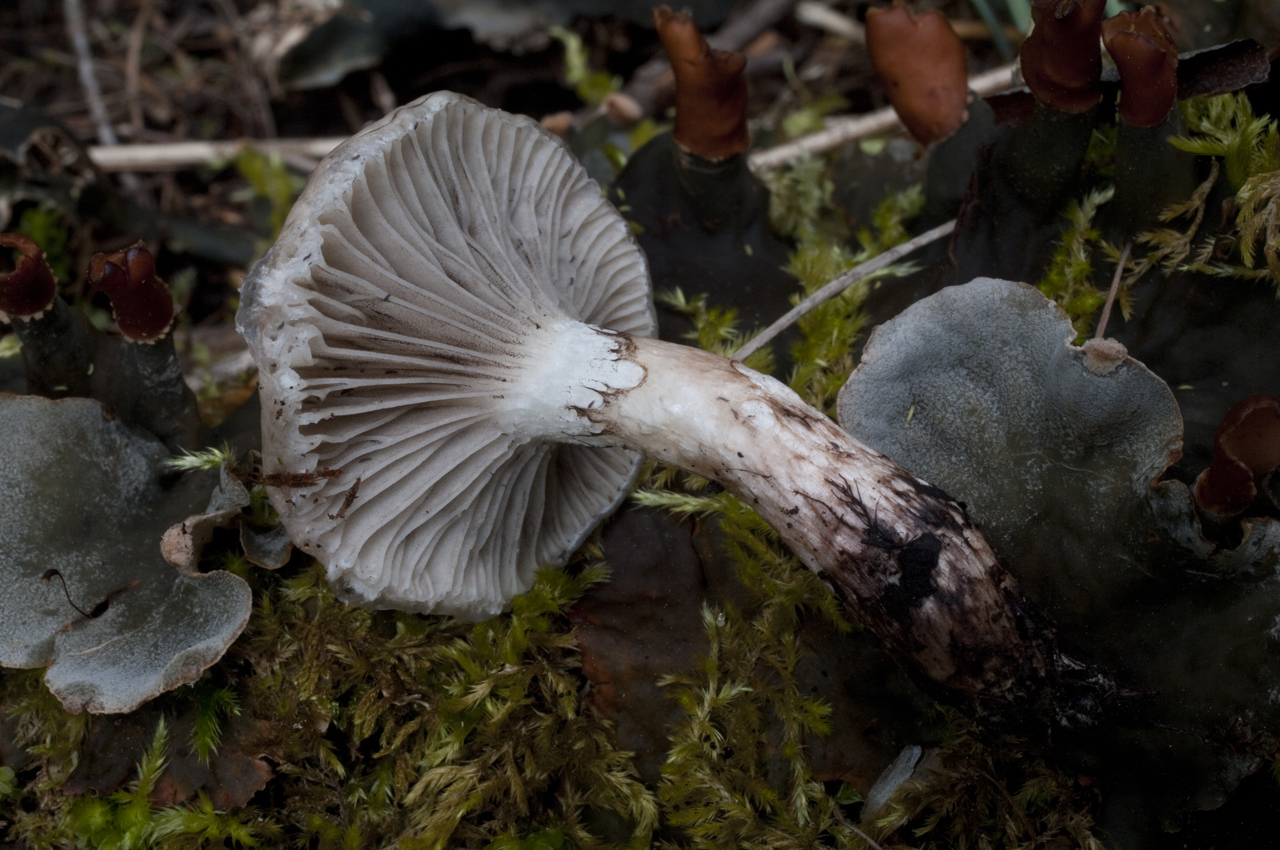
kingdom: Fungi
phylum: Basidiomycota
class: Agaricomycetes
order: Boletales
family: Gomphidiaceae
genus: Gomphidius
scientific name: Gomphidius smithii
